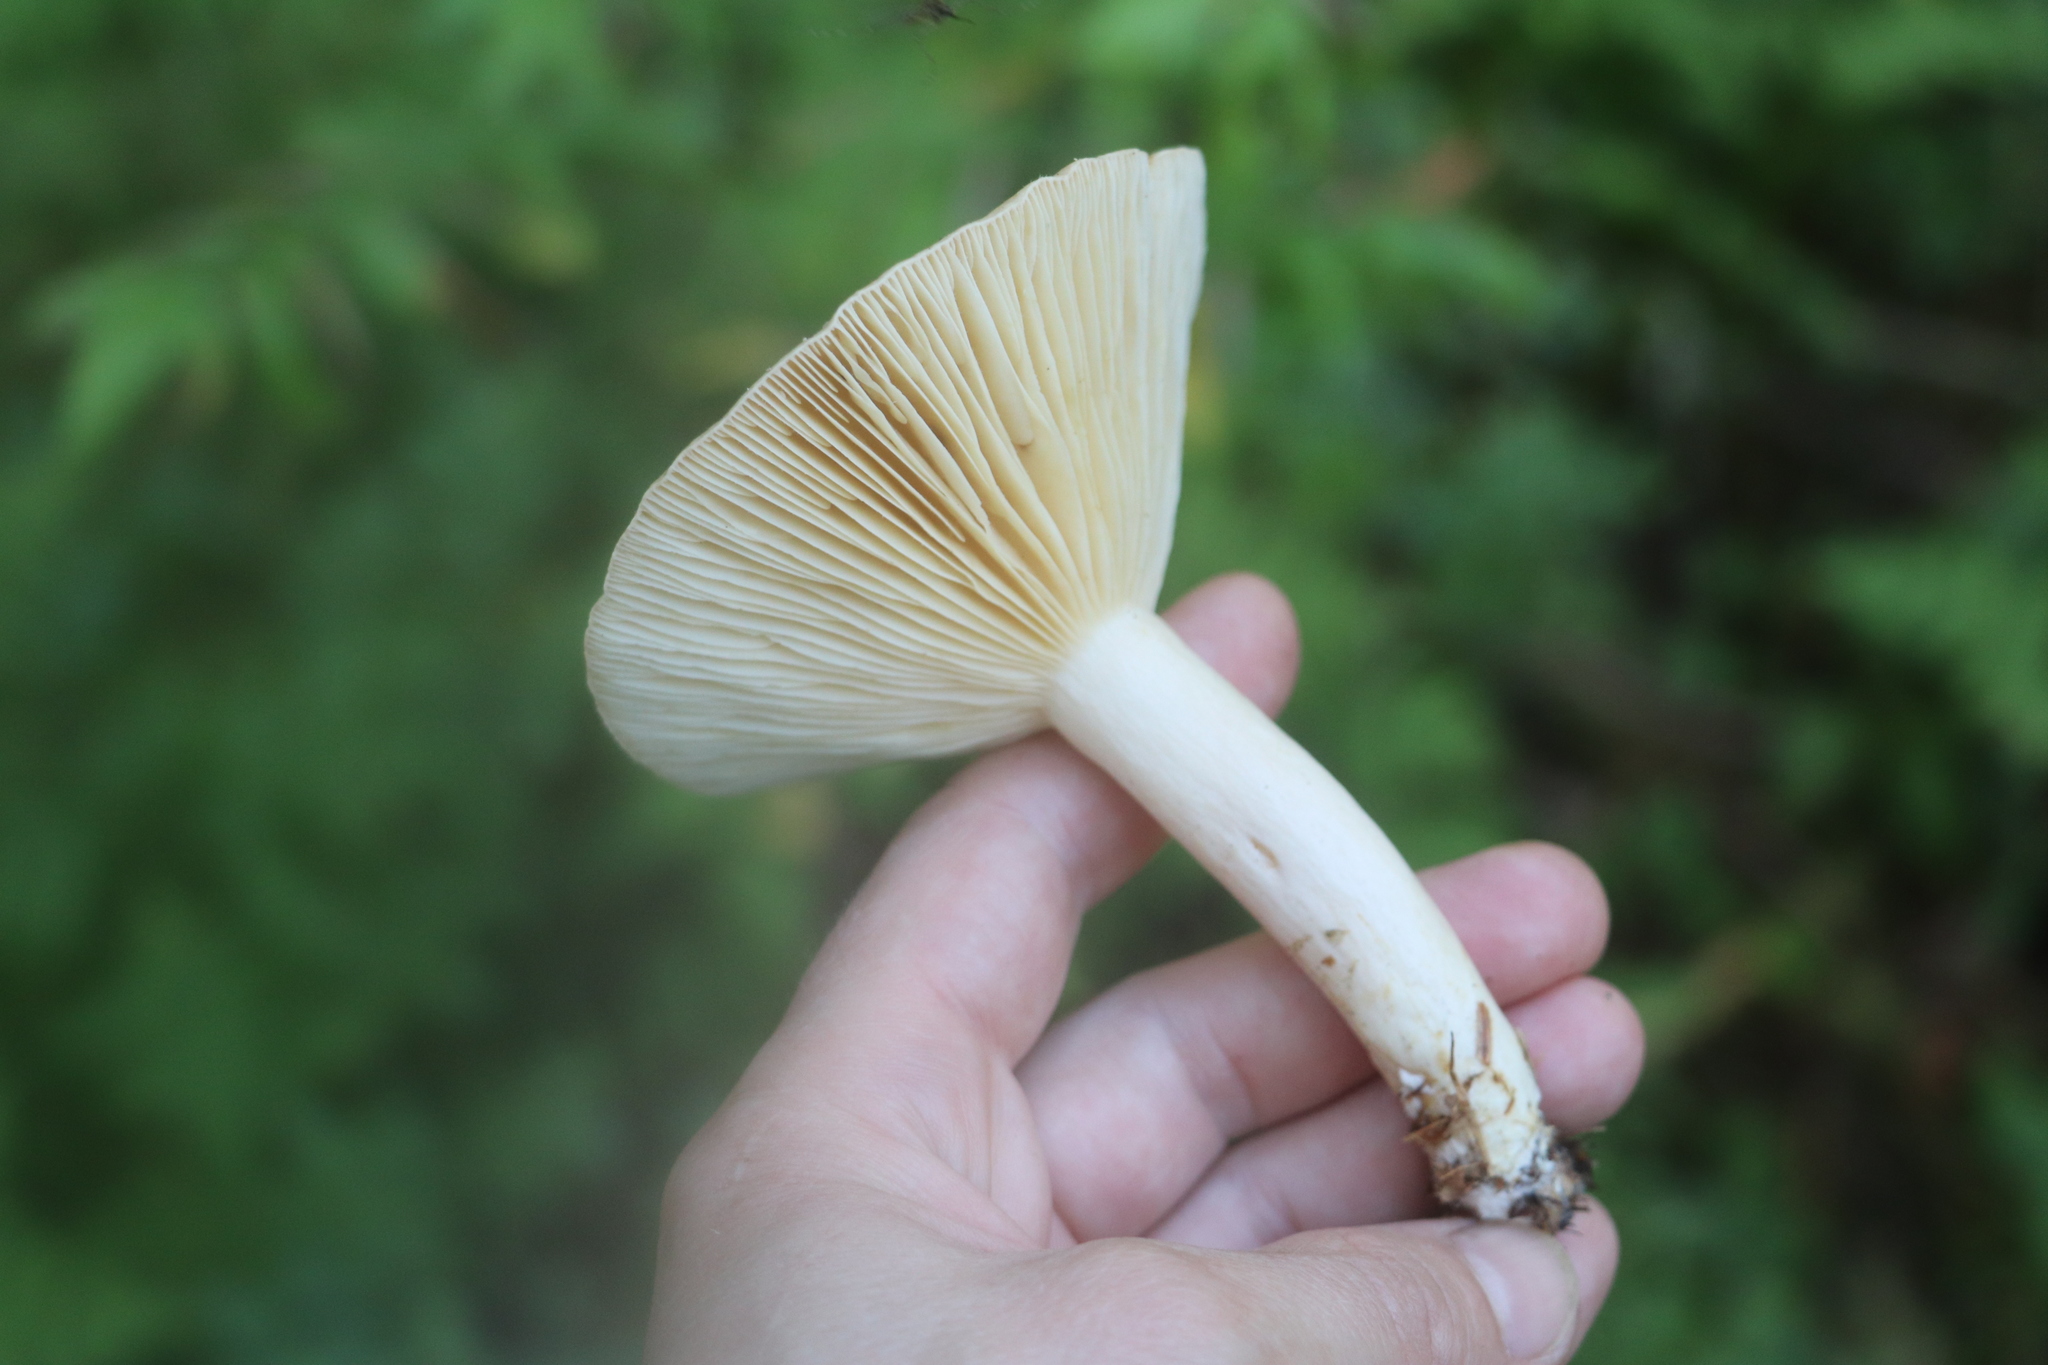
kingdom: Fungi
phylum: Basidiomycota
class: Agaricomycetes
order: Russulales
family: Russulaceae
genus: Lactarius
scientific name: Lactarius utilis
